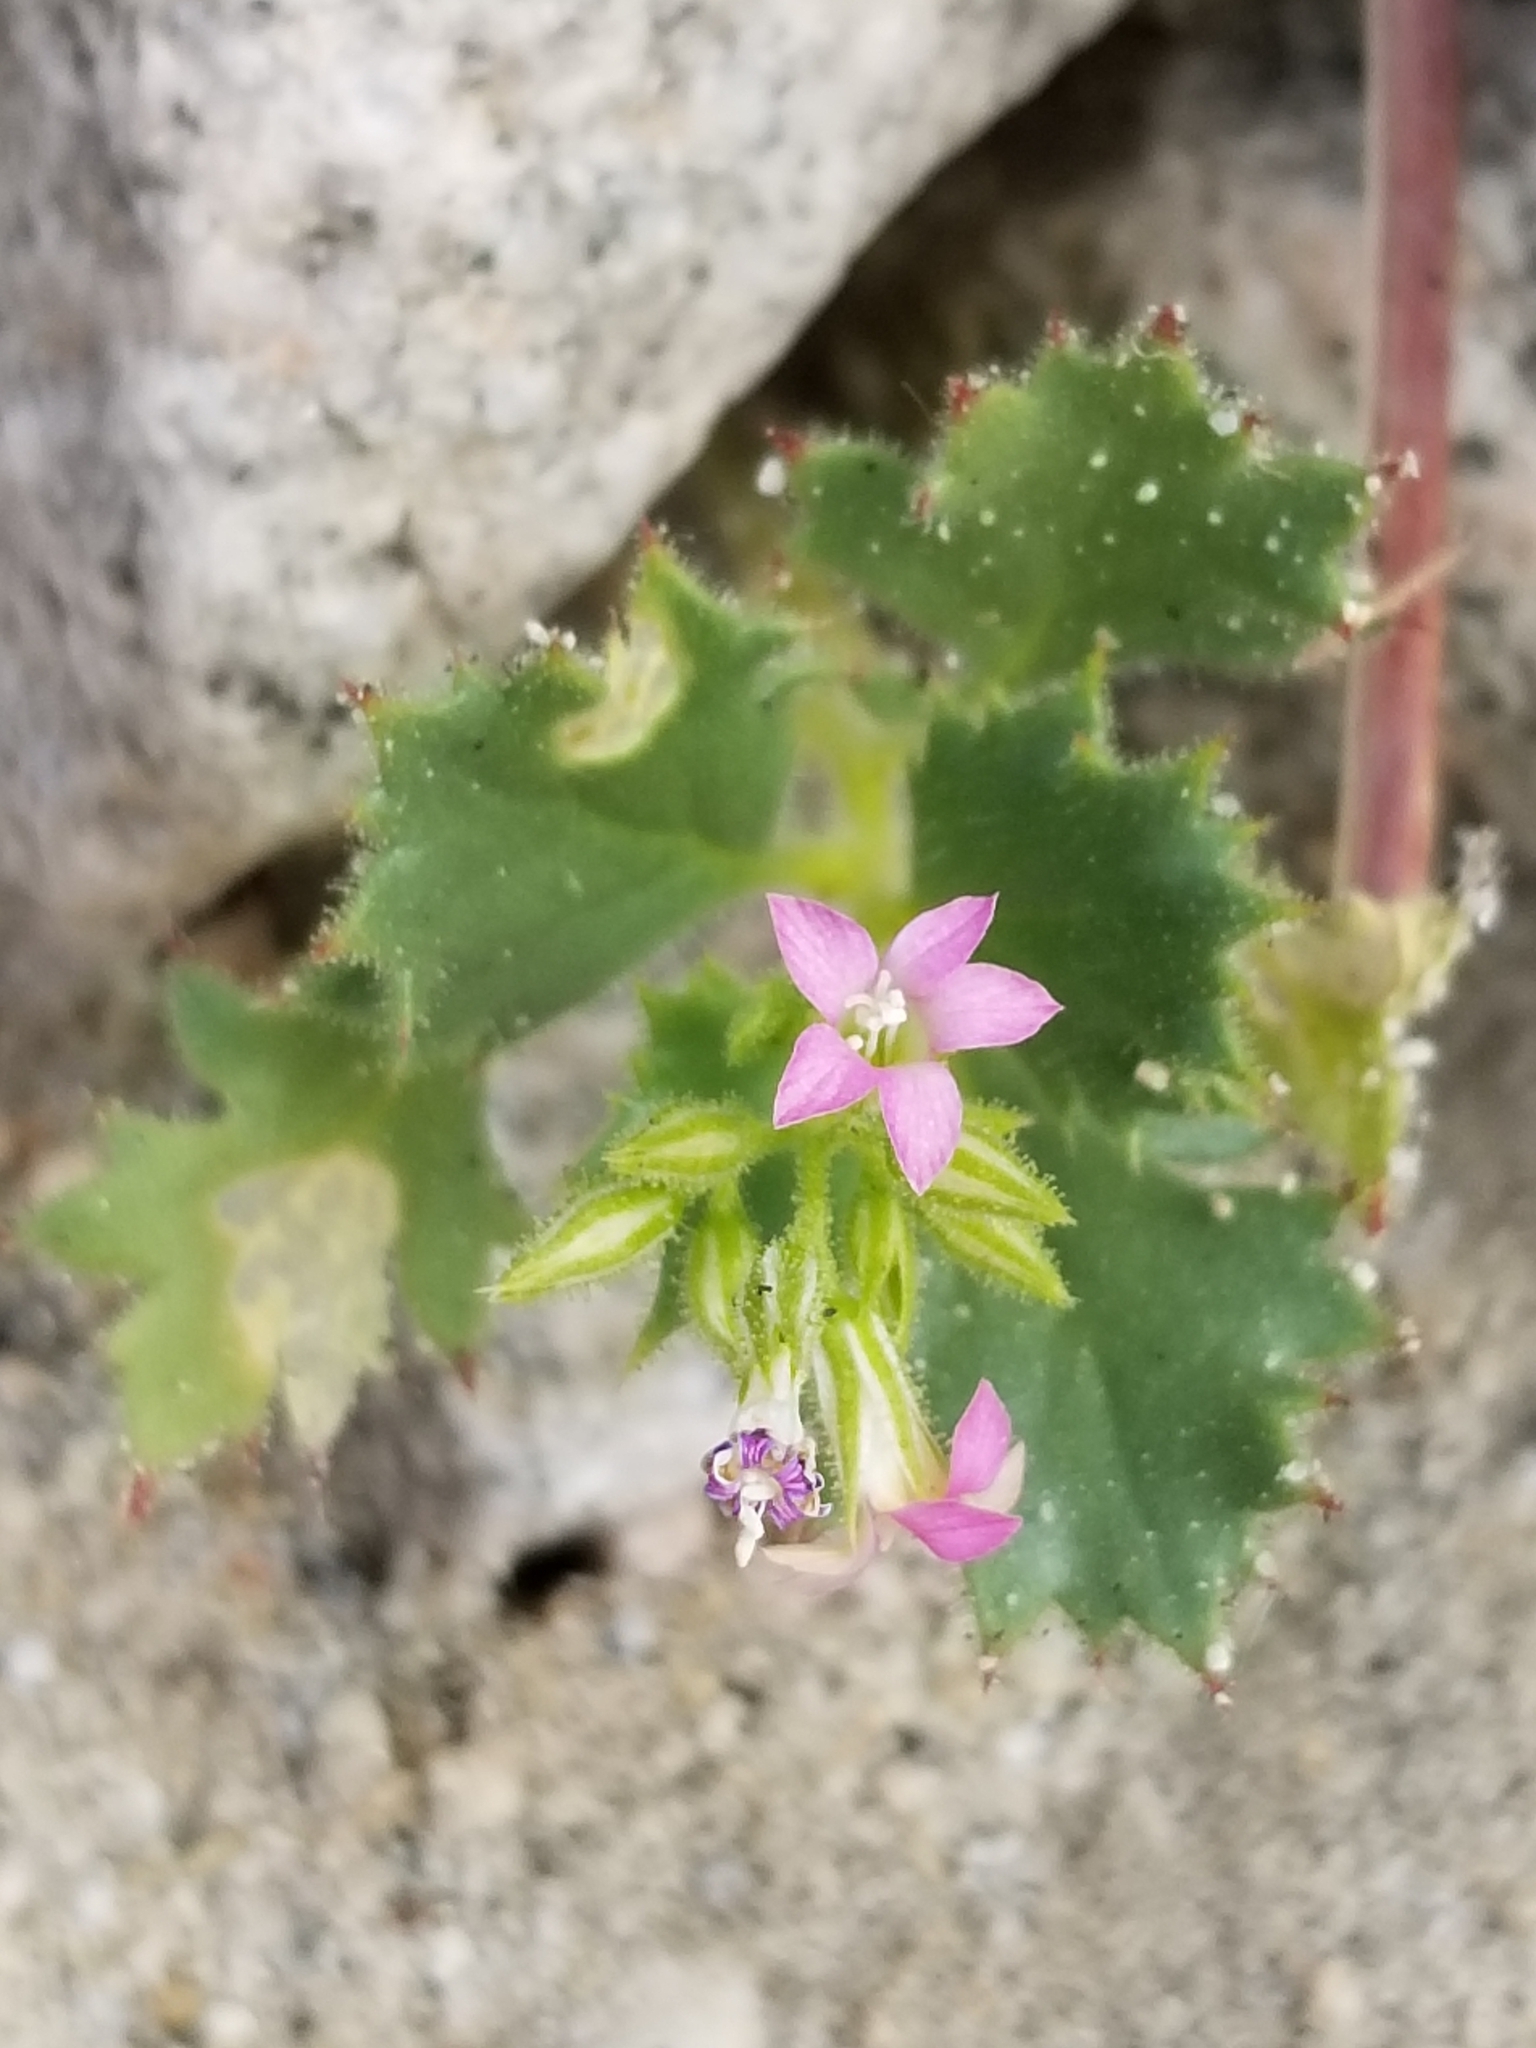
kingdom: Plantae
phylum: Tracheophyta
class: Magnoliopsida
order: Ericales
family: Polemoniaceae
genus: Aliciella
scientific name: Aliciella latifolia
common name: Broad-leaf gilia
